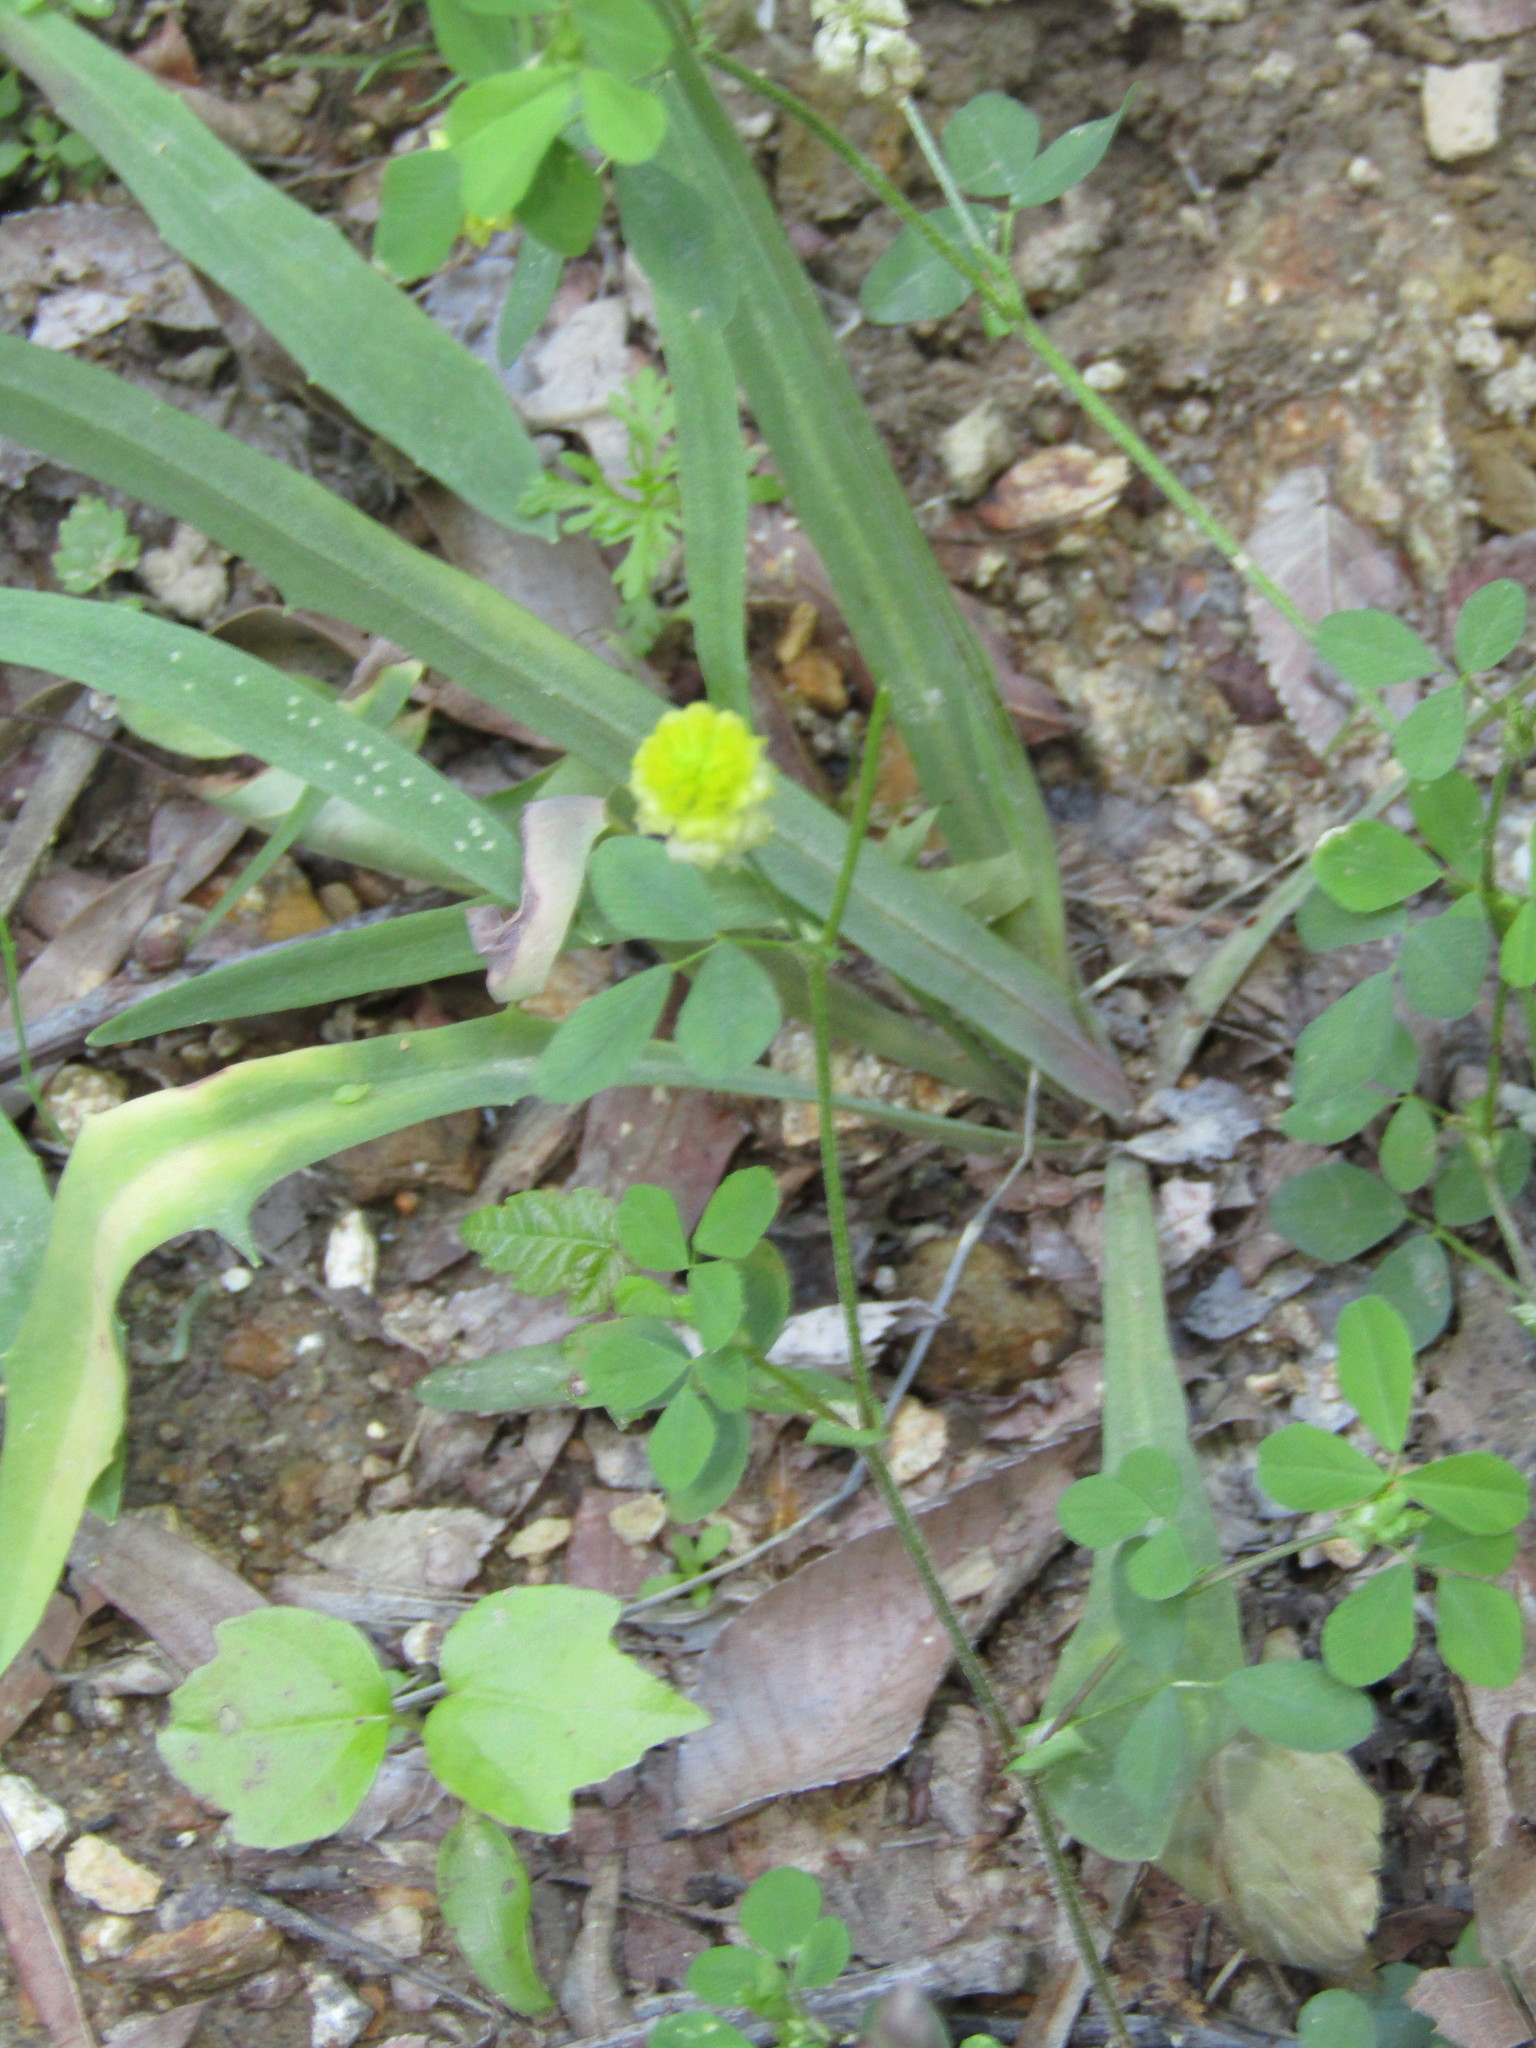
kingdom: Plantae
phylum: Tracheophyta
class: Magnoliopsida
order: Fabales
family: Fabaceae
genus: Trifolium
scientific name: Trifolium campestre
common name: Field clover
